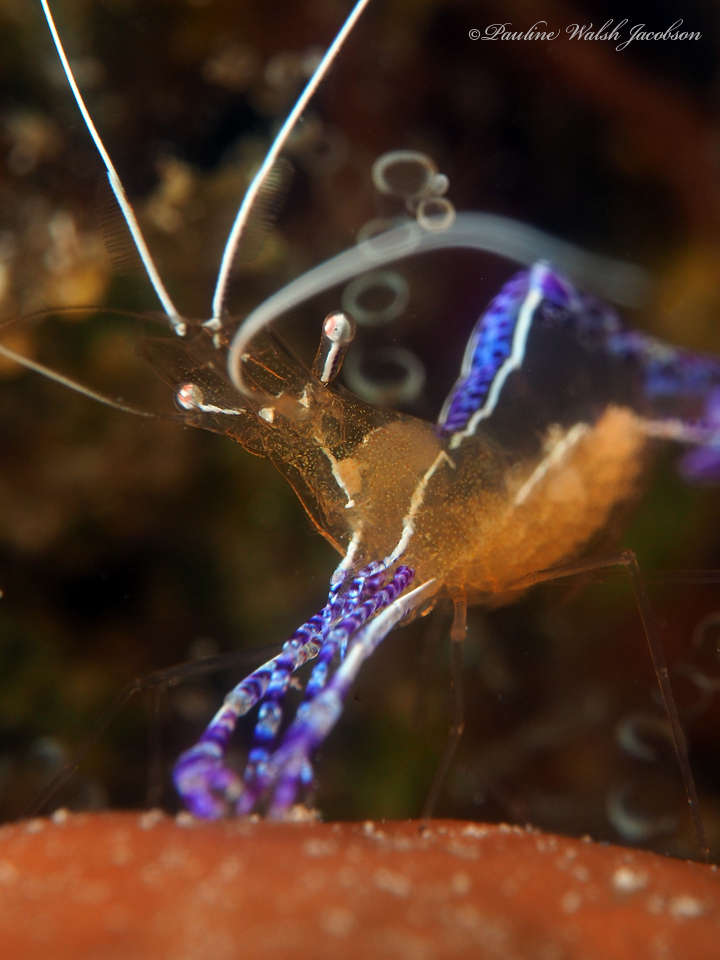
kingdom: Animalia
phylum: Arthropoda
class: Malacostraca
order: Decapoda
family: Palaemonidae
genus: Ancylomenes
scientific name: Ancylomenes pedersoni
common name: Pederson's cleaning shrimp
